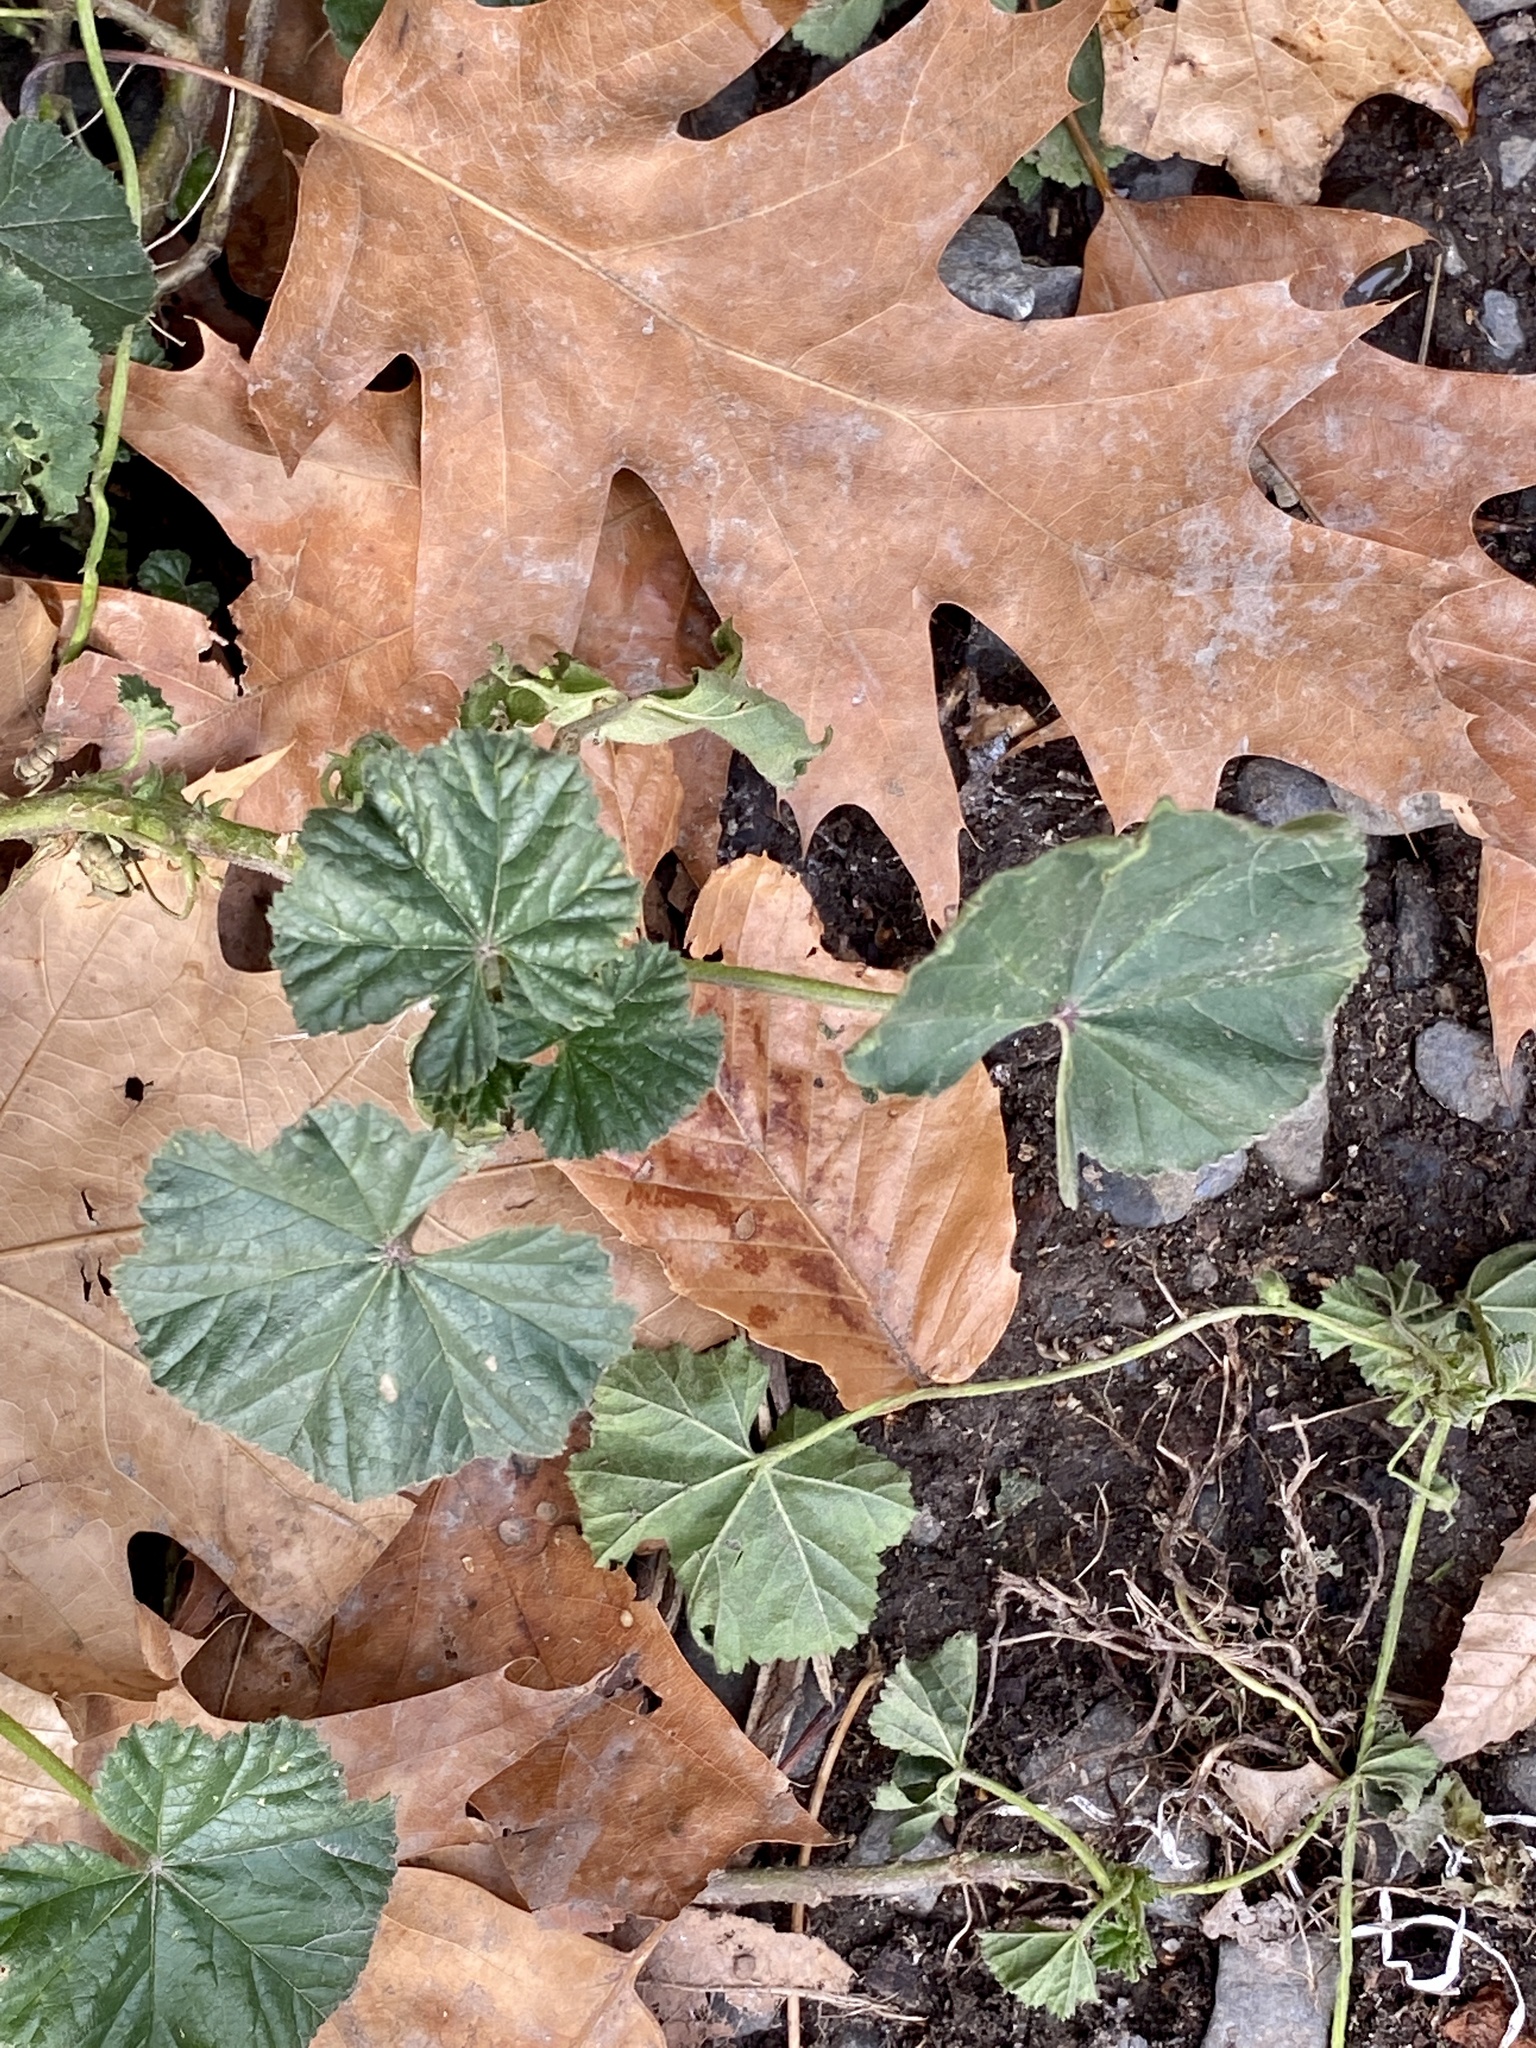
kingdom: Plantae
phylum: Tracheophyta
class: Magnoliopsida
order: Malvales
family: Malvaceae
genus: Malva
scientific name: Malva neglecta
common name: Common mallow
